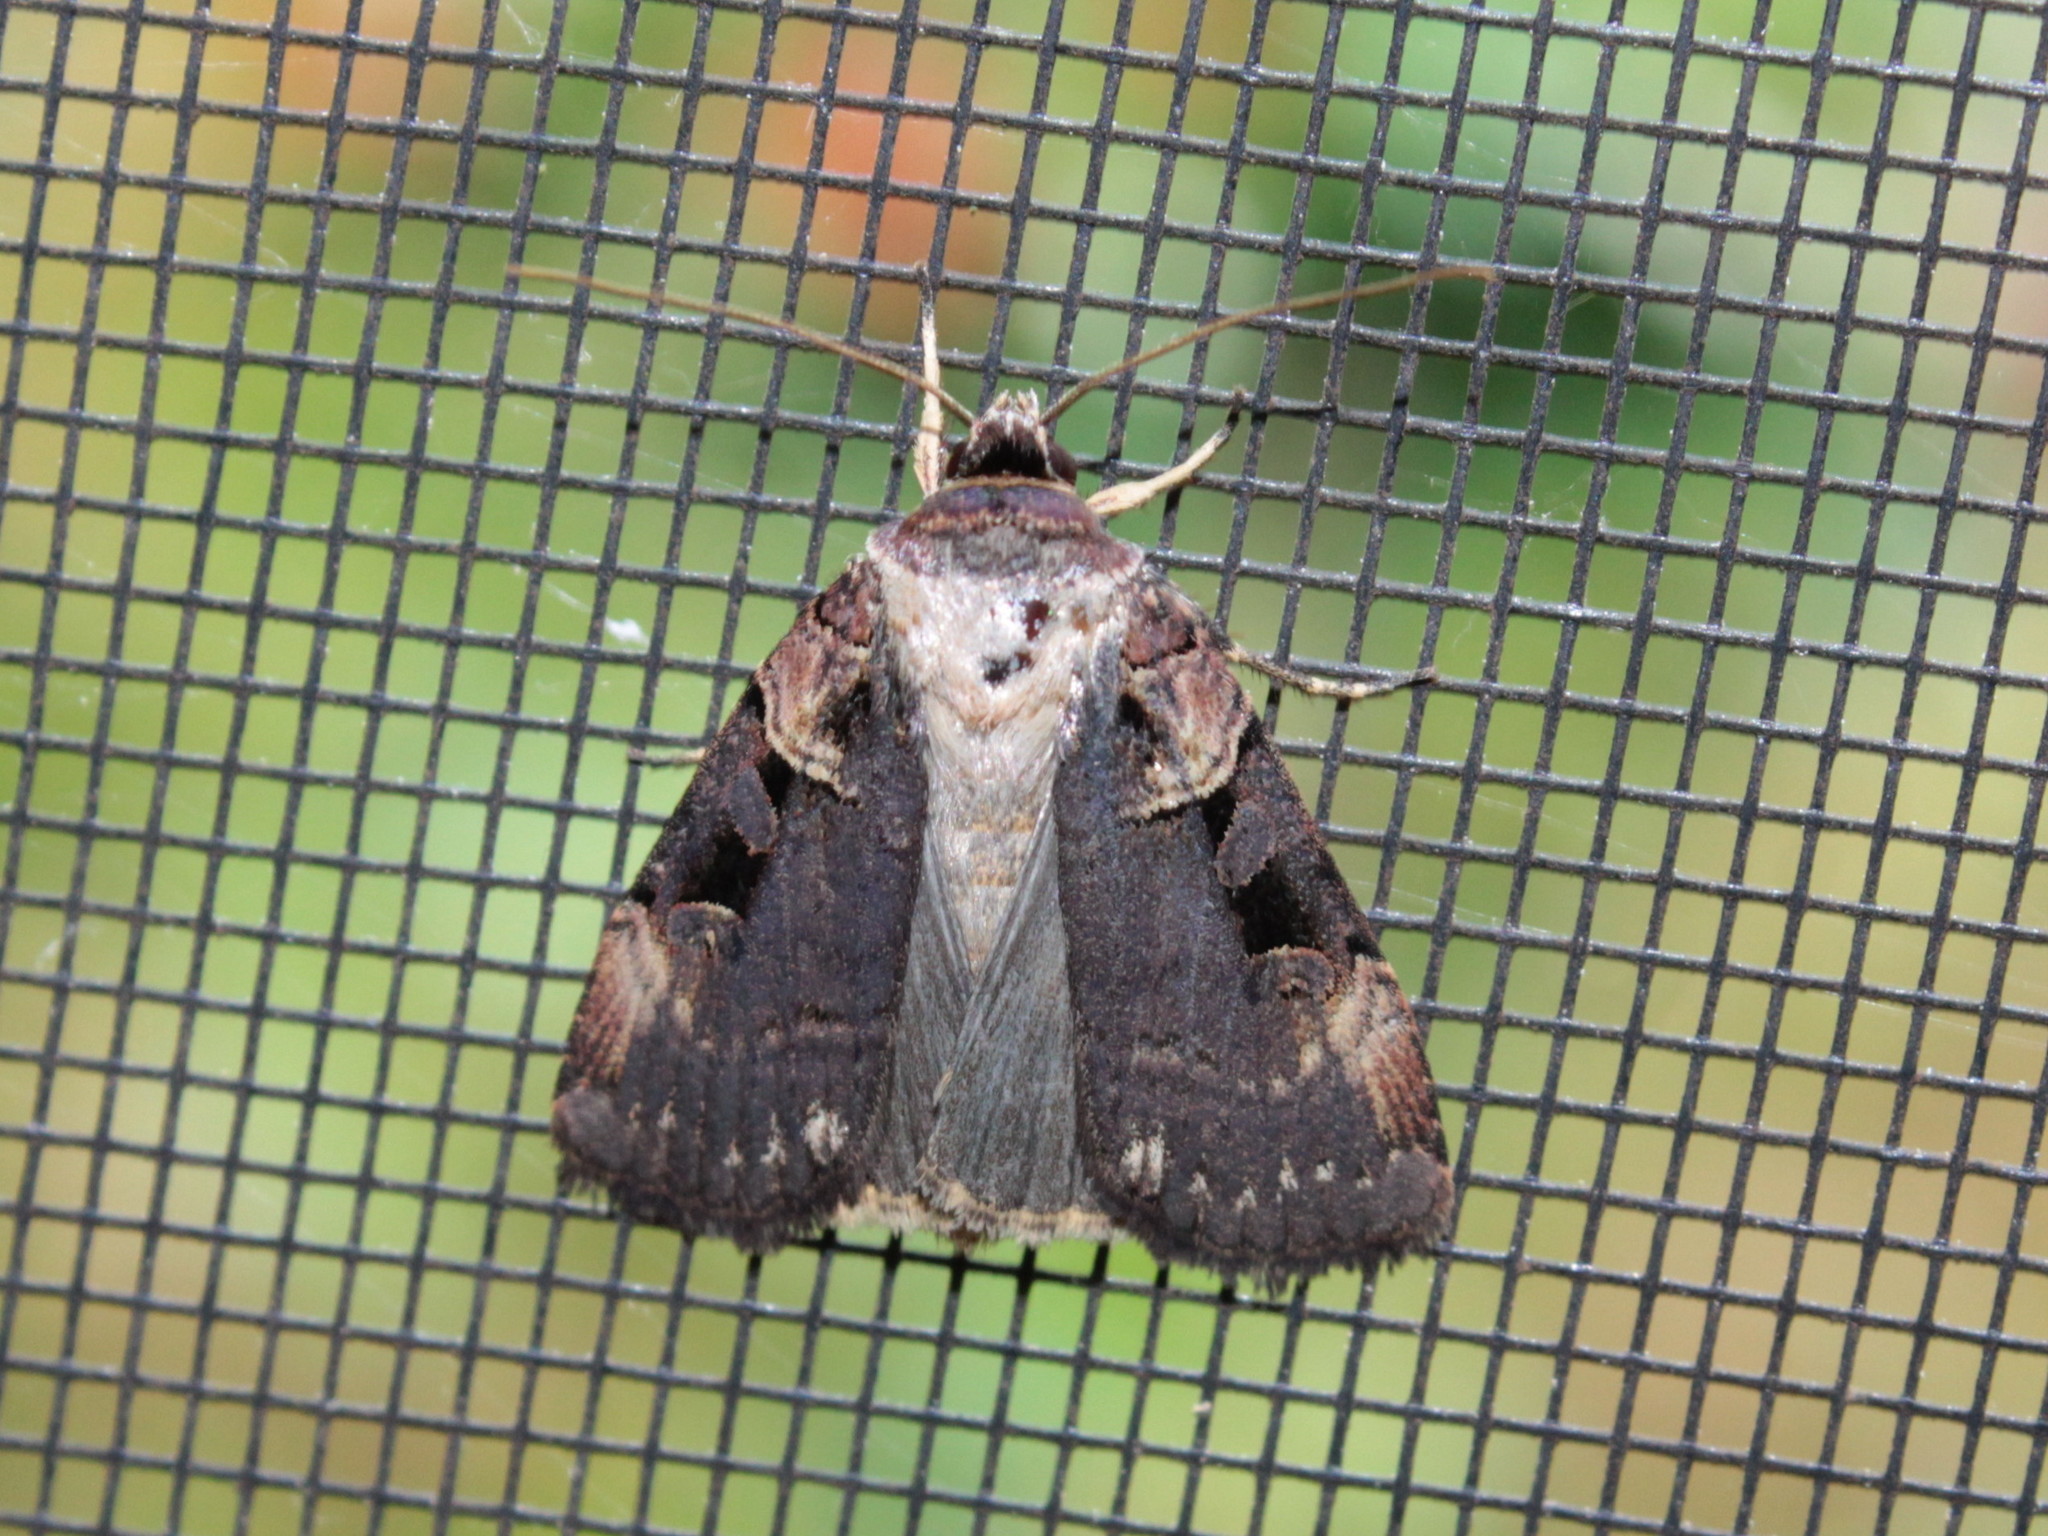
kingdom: Animalia
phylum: Arthropoda
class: Insecta
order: Lepidoptera
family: Noctuidae
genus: Pseudohermonassa
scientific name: Pseudohermonassa bicarnea
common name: Pink spotted dart
